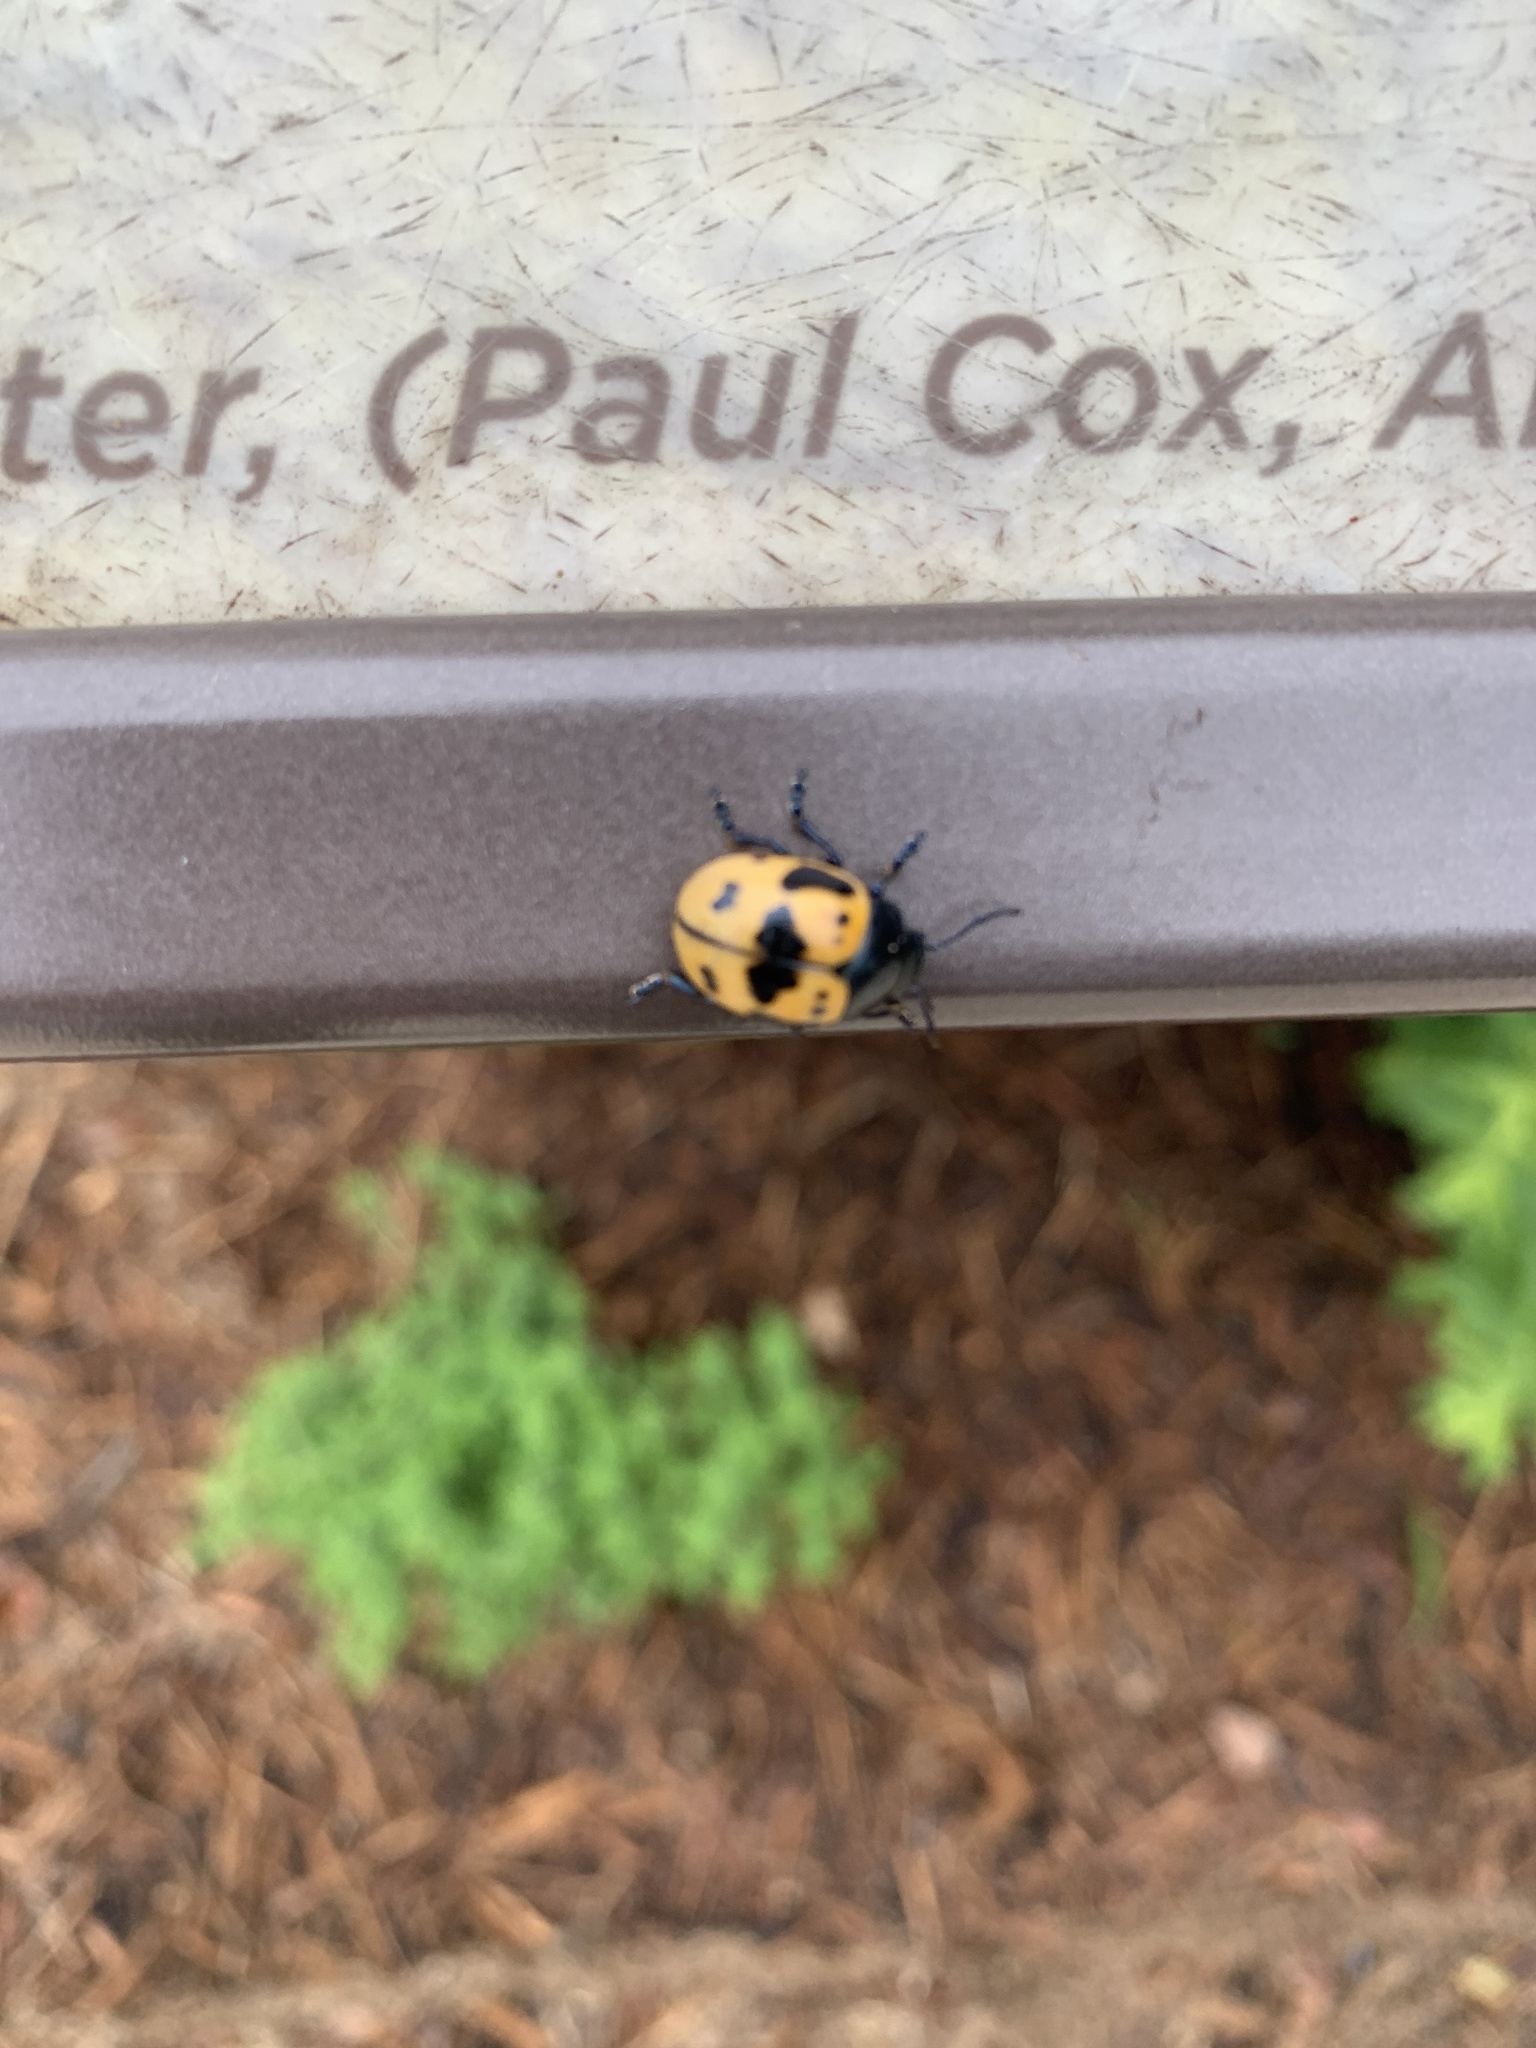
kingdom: Animalia
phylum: Arthropoda
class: Insecta
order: Coleoptera
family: Chrysomelidae
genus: Labidomera
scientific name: Labidomera clivicollis
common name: Swamp milkweed leaf beetle
